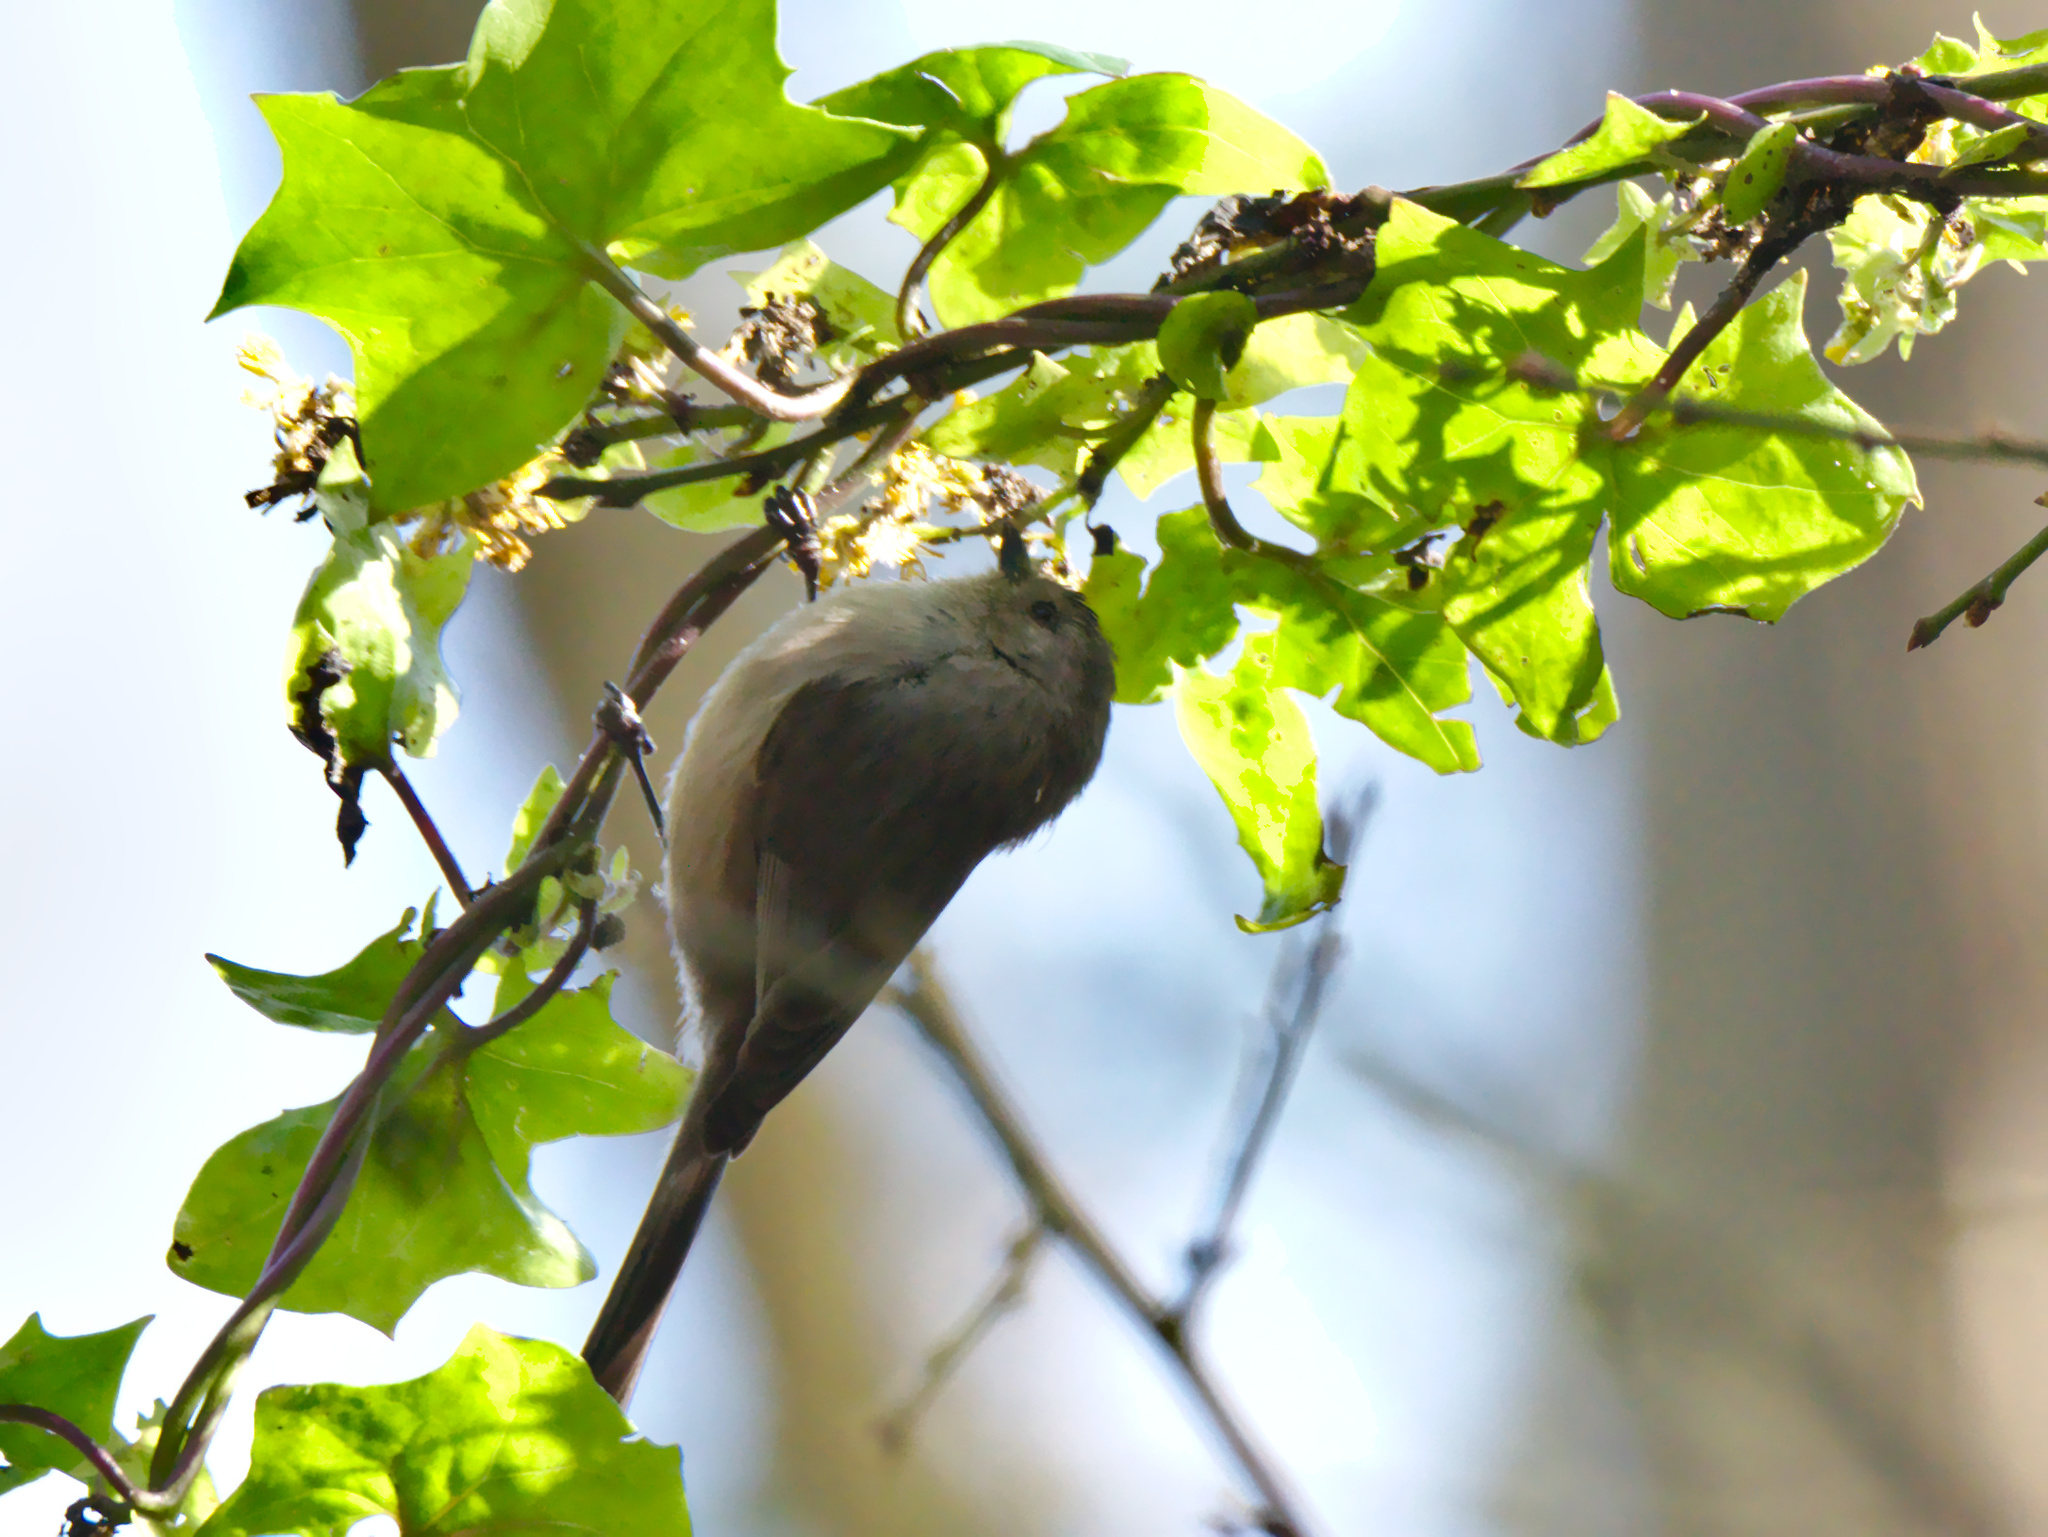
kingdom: Animalia
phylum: Chordata
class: Aves
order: Passeriformes
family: Aegithalidae
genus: Psaltriparus
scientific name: Psaltriparus minimus
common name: American bushtit
